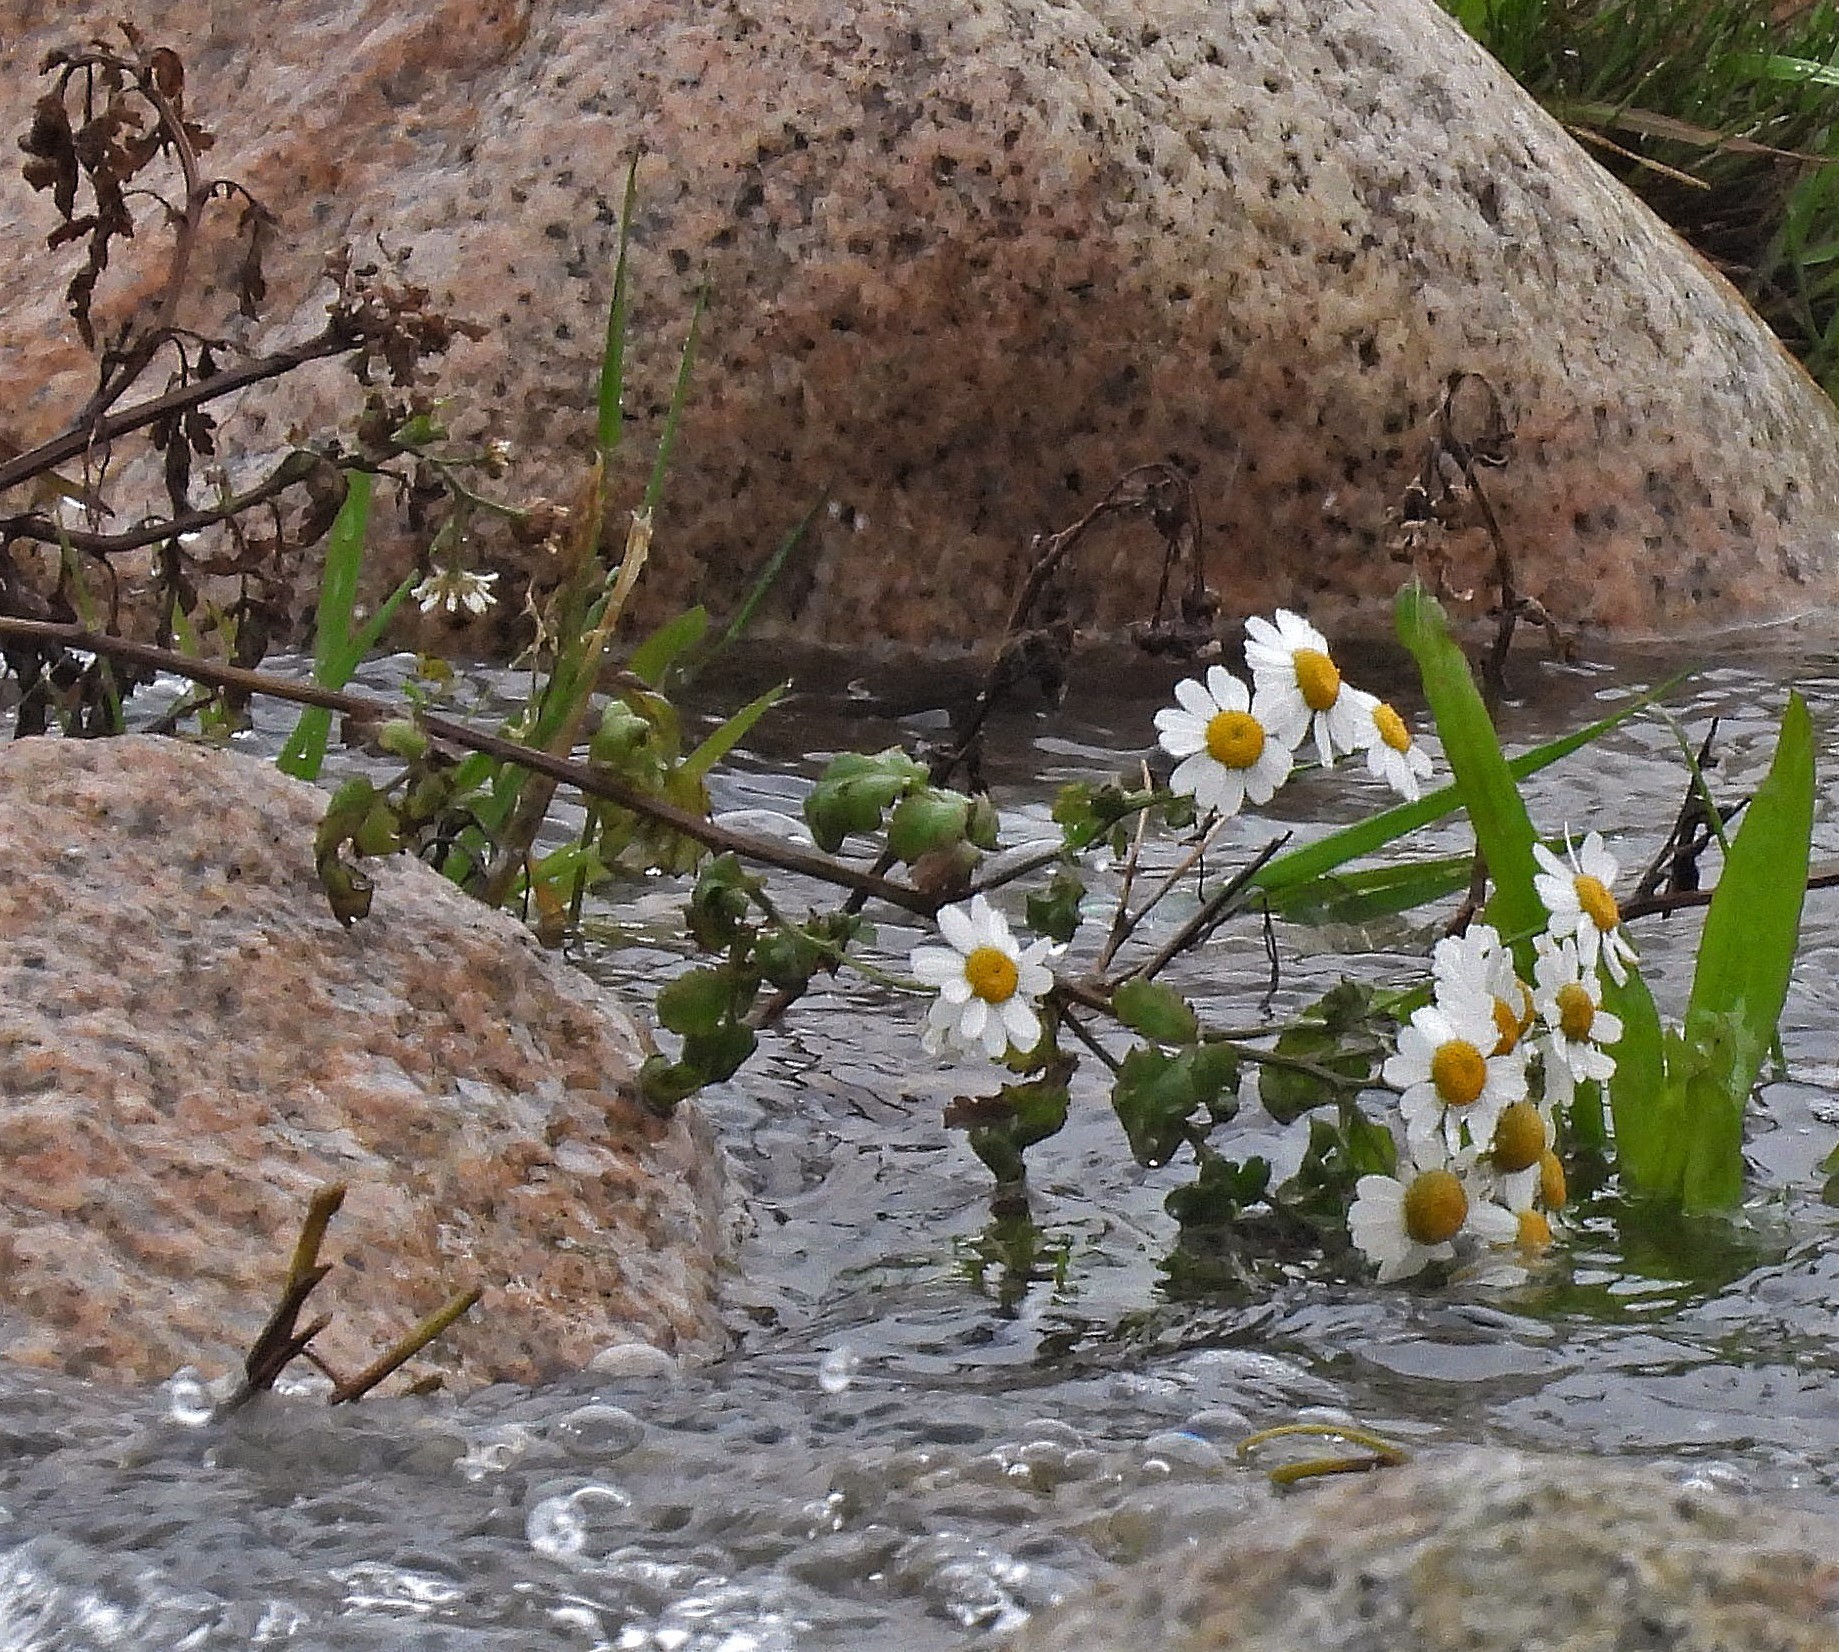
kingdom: Plantae
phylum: Tracheophyta
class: Magnoliopsida
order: Asterales
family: Asteraceae
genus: Tanacetum
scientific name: Tanacetum parthenium
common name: Feverfew
